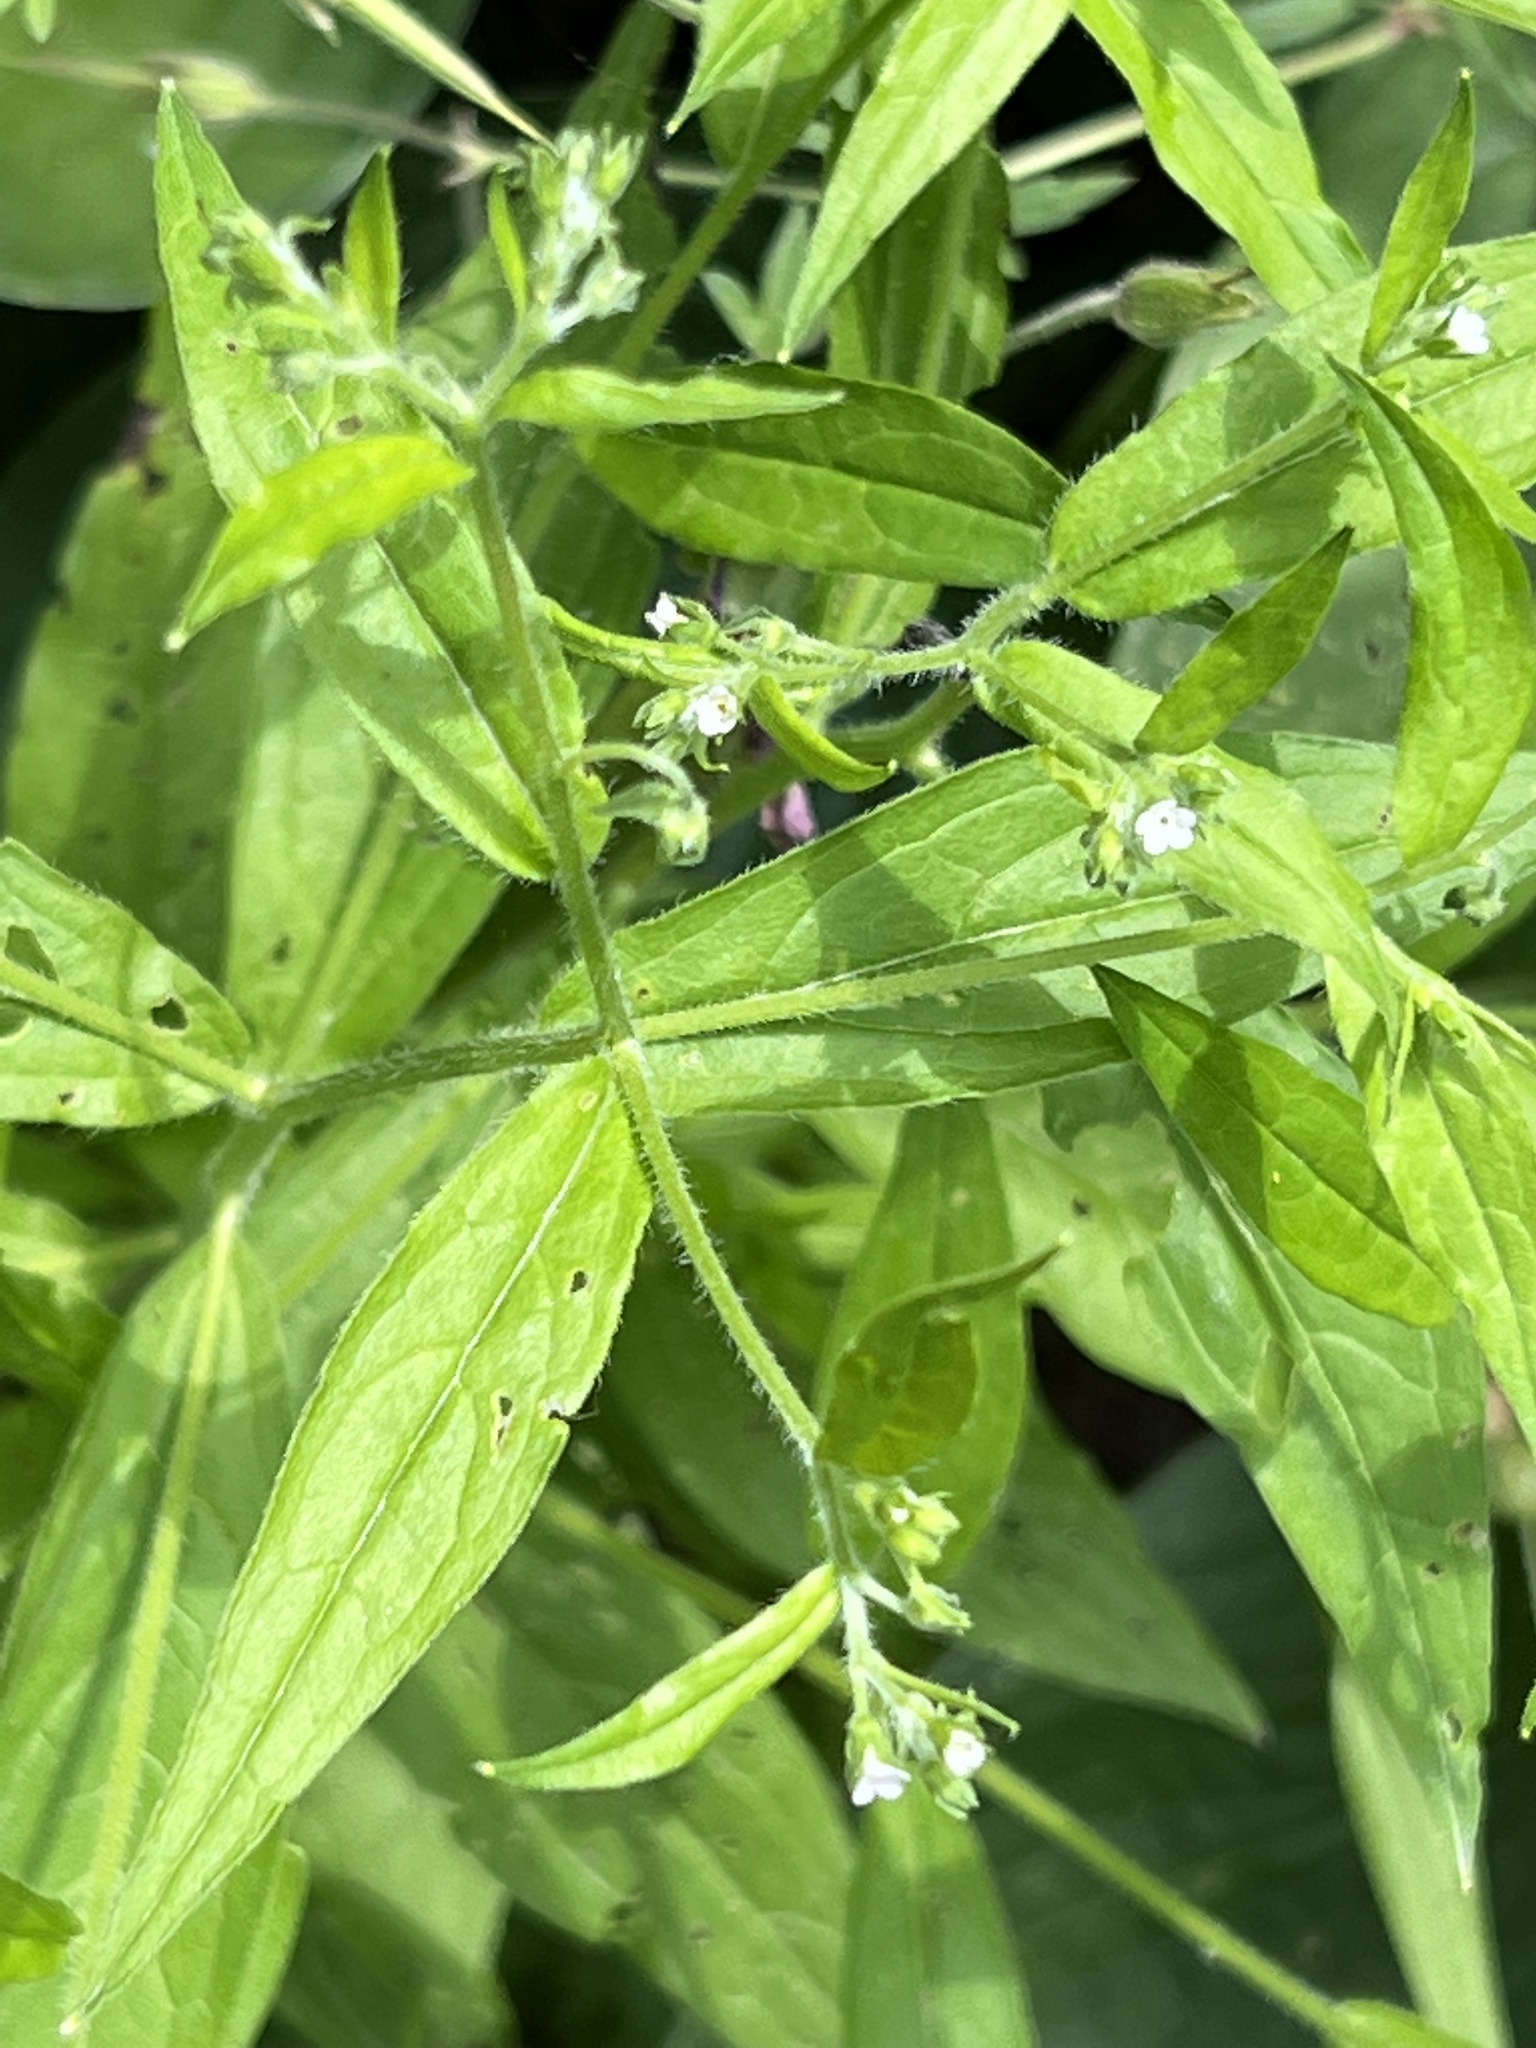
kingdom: Plantae
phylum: Tracheophyta
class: Magnoliopsida
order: Boraginales
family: Boraginaceae
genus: Hackelia
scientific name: Hackelia virginiana
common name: Beggar's-lice
